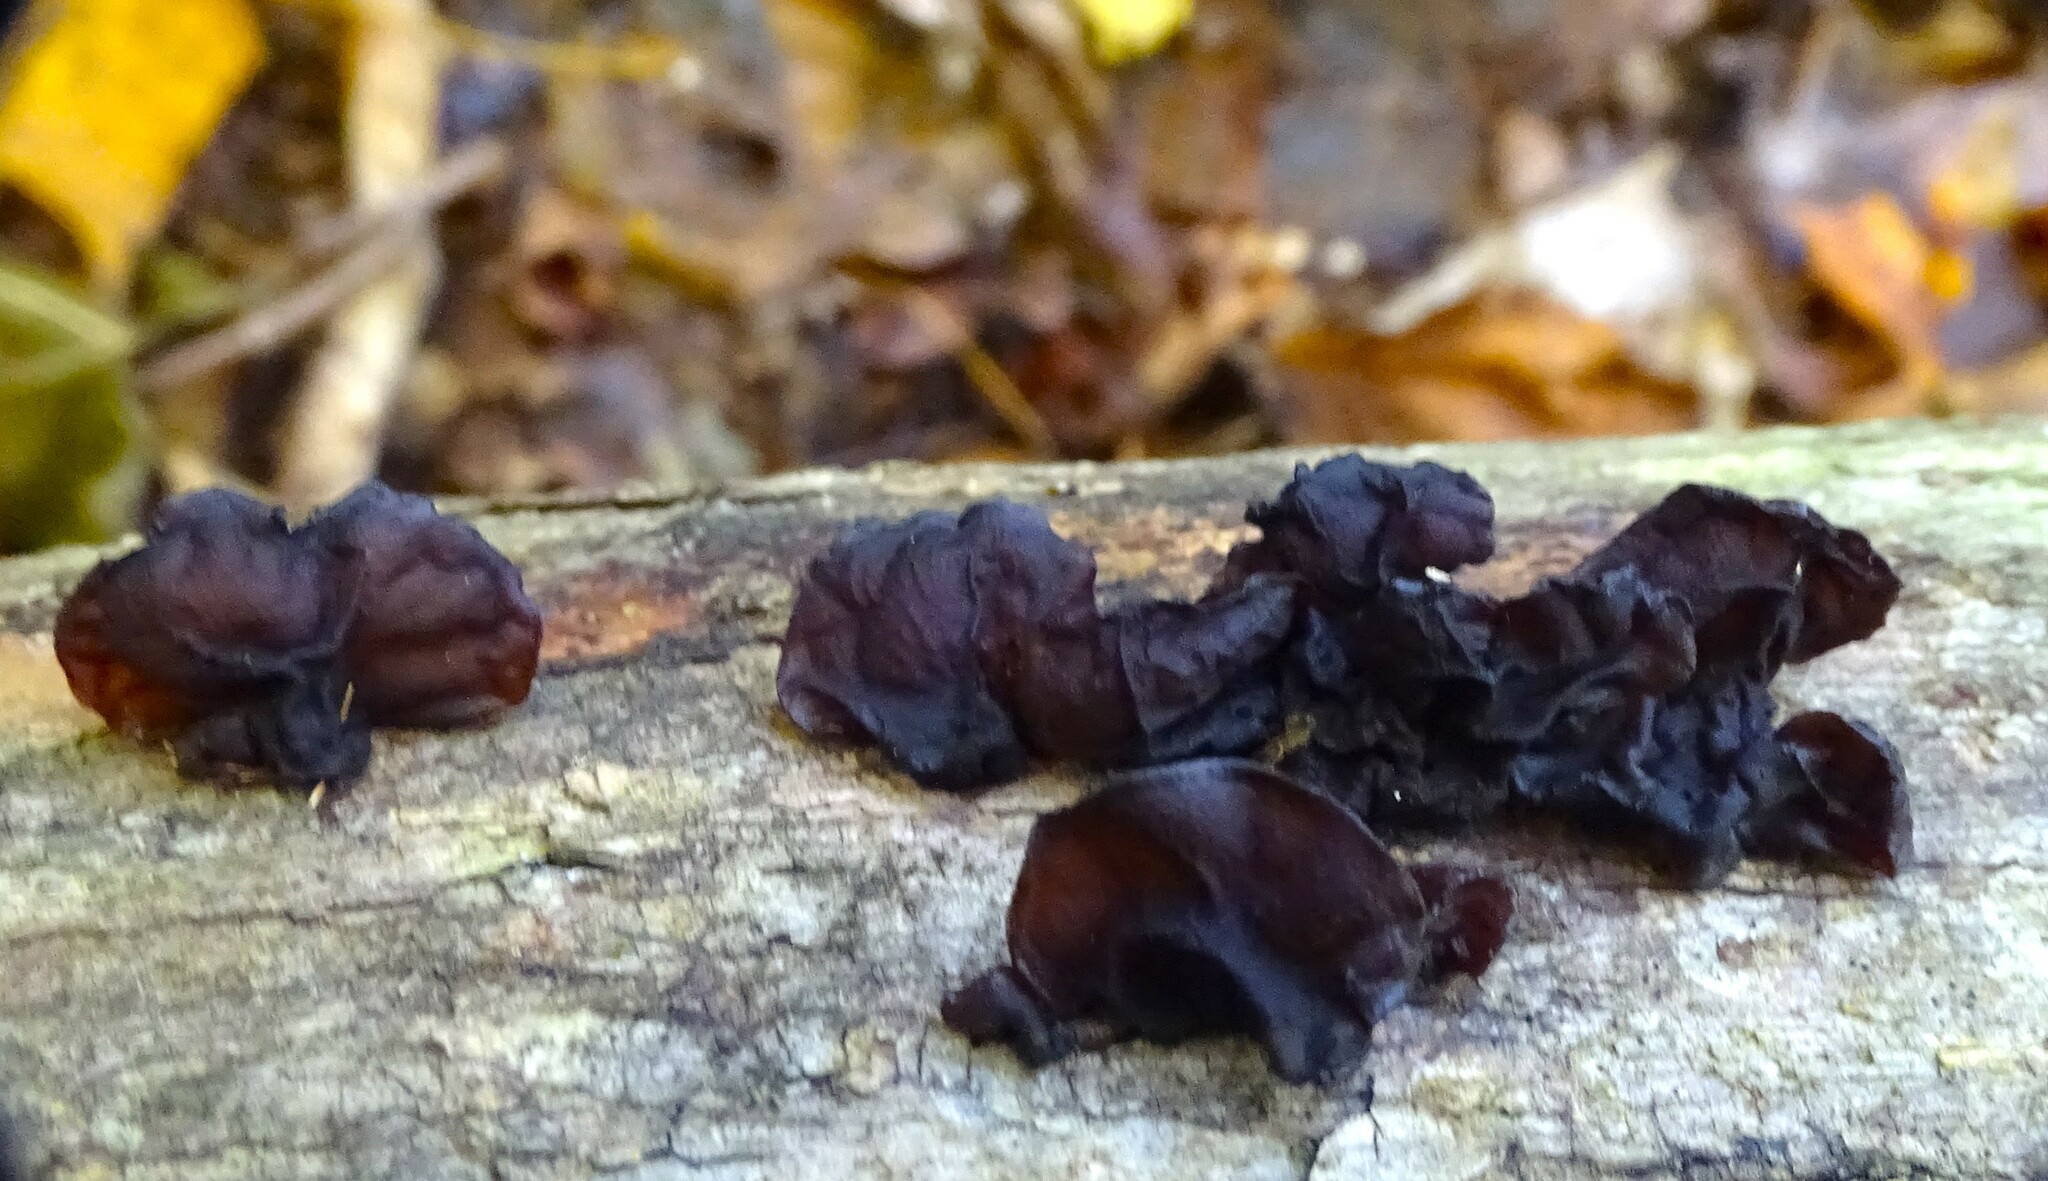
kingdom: Fungi
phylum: Basidiomycota
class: Agaricomycetes
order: Auriculariales
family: Auriculariaceae
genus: Exidia
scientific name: Exidia
